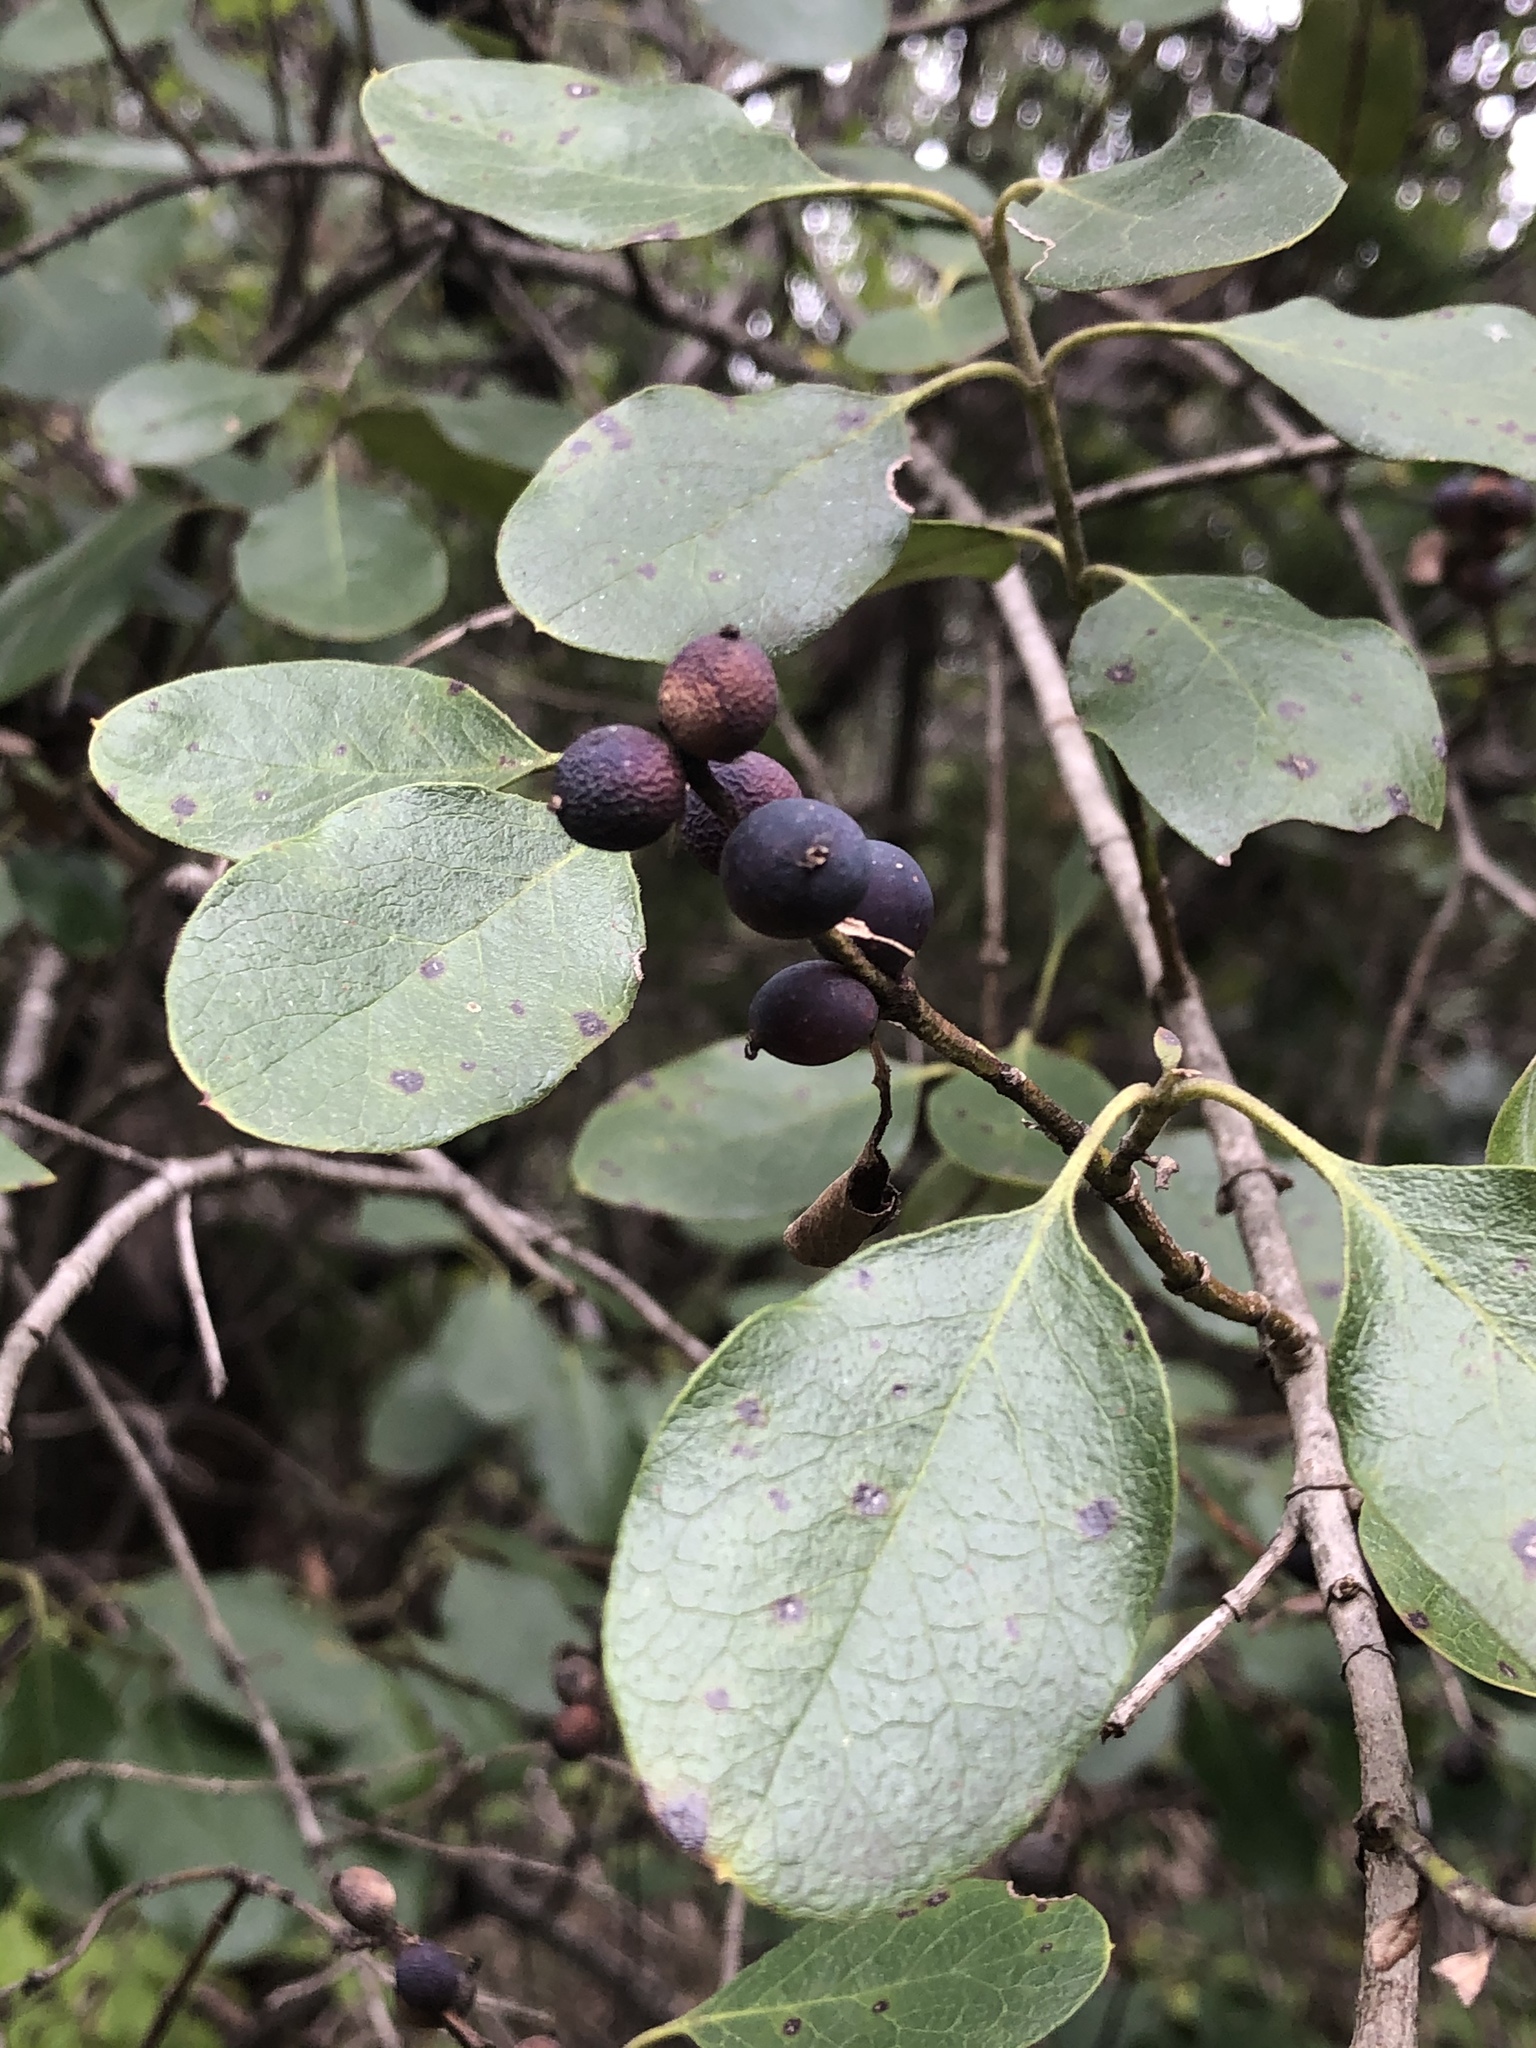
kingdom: Plantae
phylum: Tracheophyta
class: Magnoliopsida
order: Garryales
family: Garryaceae
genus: Garrya
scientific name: Garrya lindheimeri
